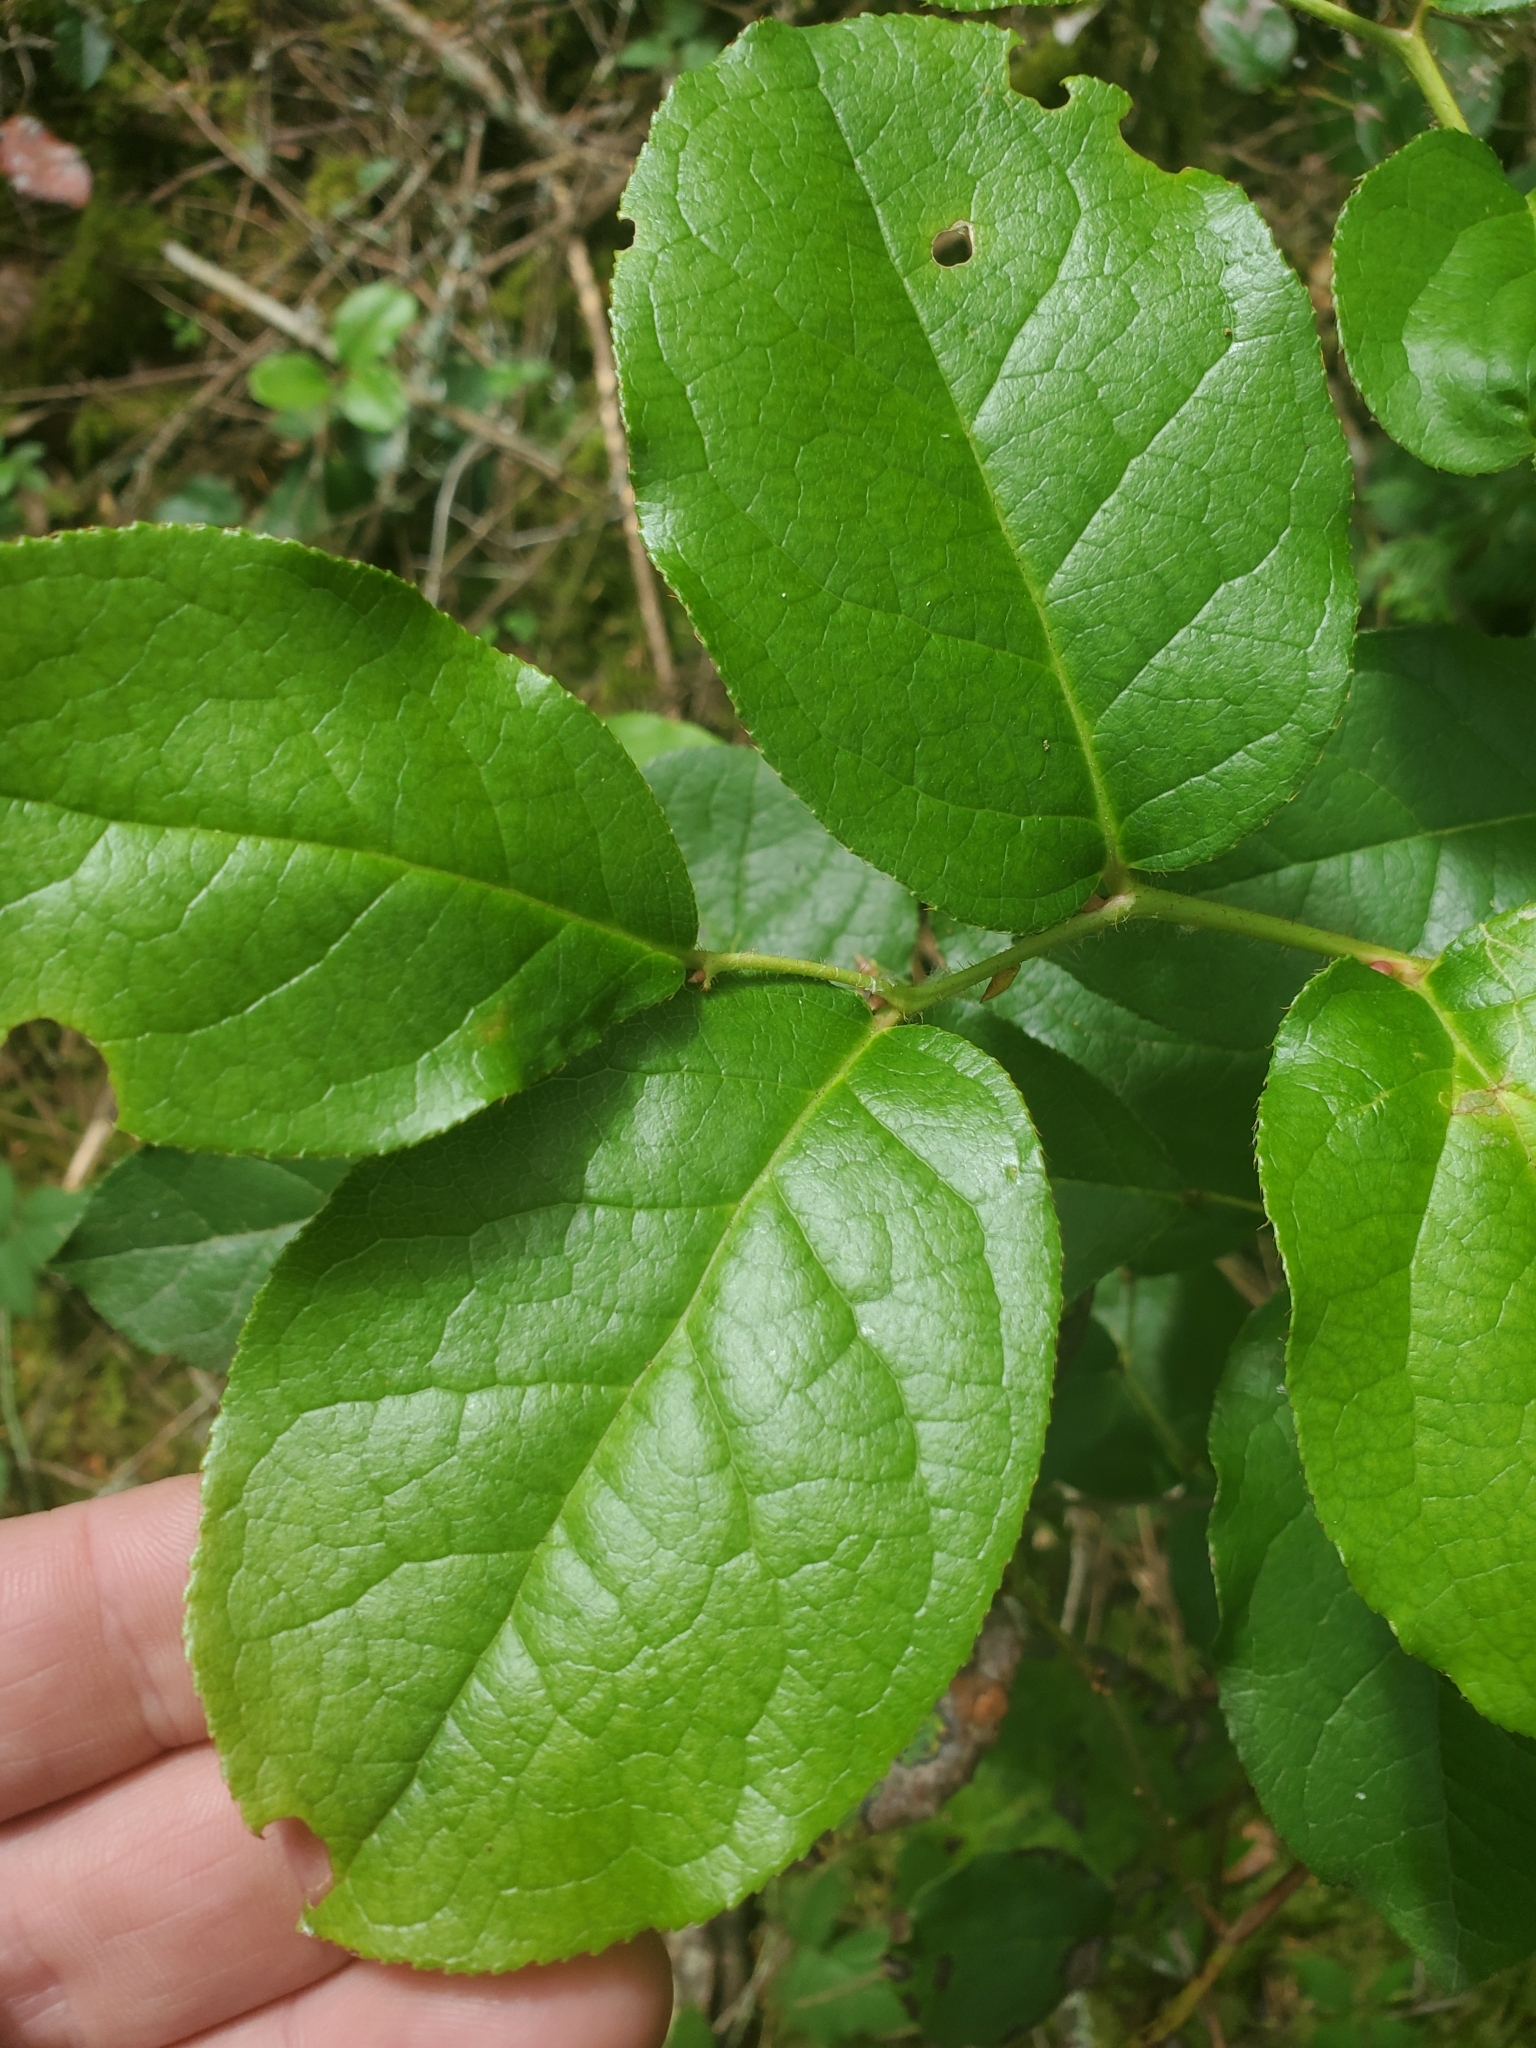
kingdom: Plantae
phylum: Tracheophyta
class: Magnoliopsida
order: Ericales
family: Ericaceae
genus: Gaultheria
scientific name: Gaultheria shallon
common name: Shallon
